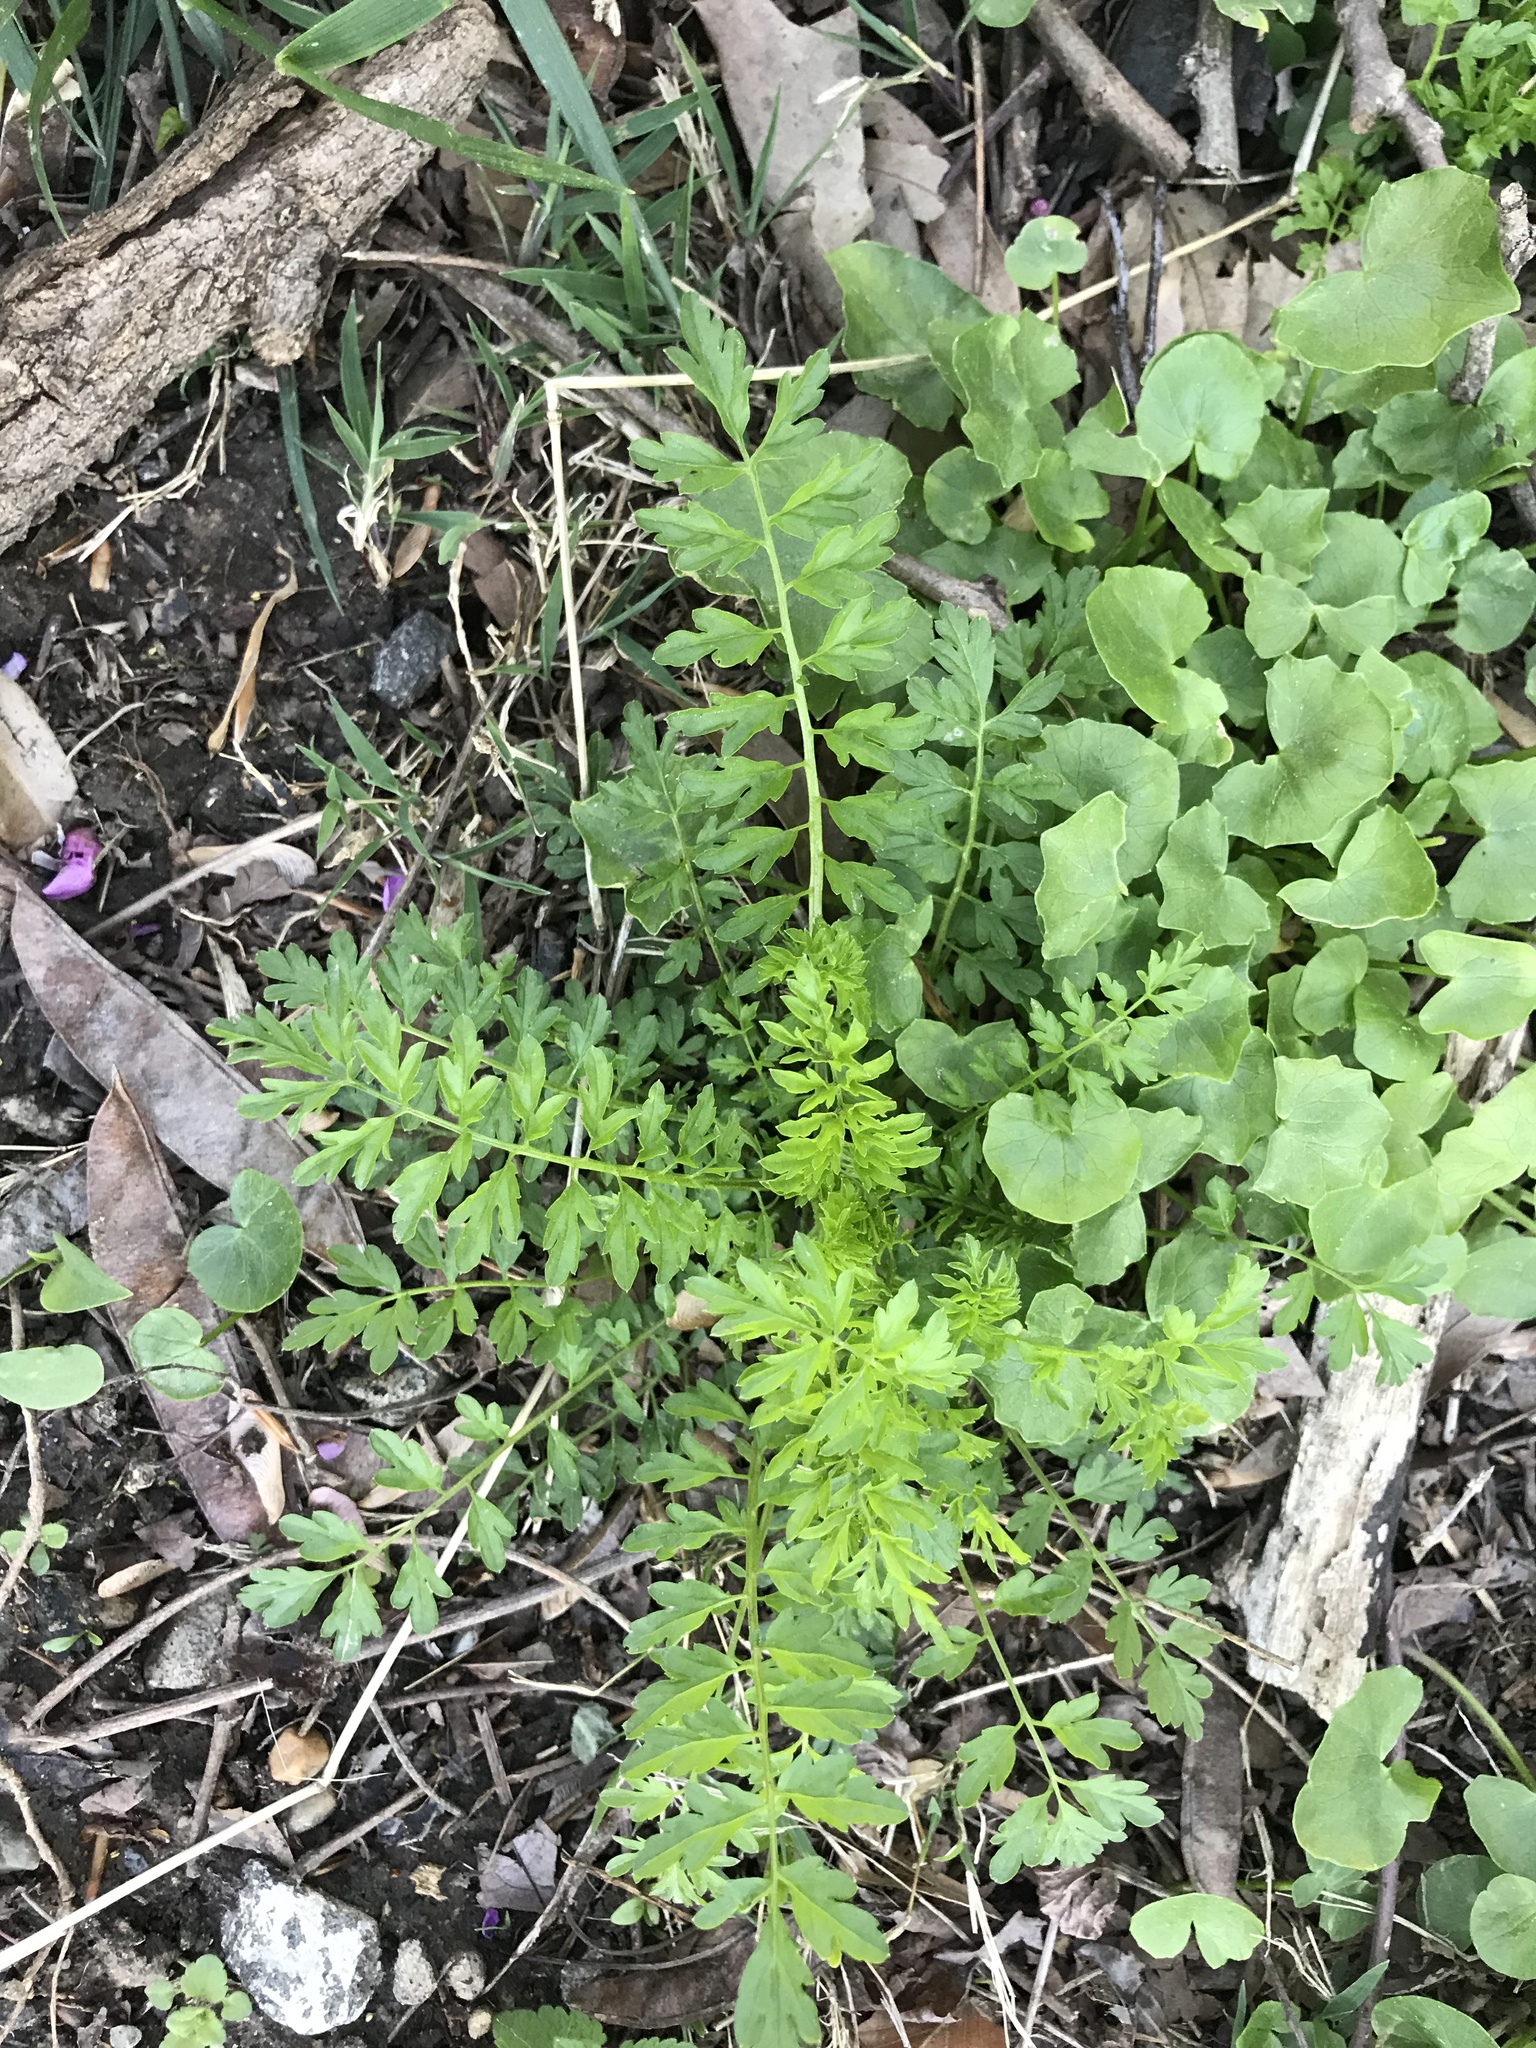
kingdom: Plantae
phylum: Tracheophyta
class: Magnoliopsida
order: Brassicales
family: Brassicaceae
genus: Cardamine
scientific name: Cardamine impatiens
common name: Narrow-leaved bitter-cress
